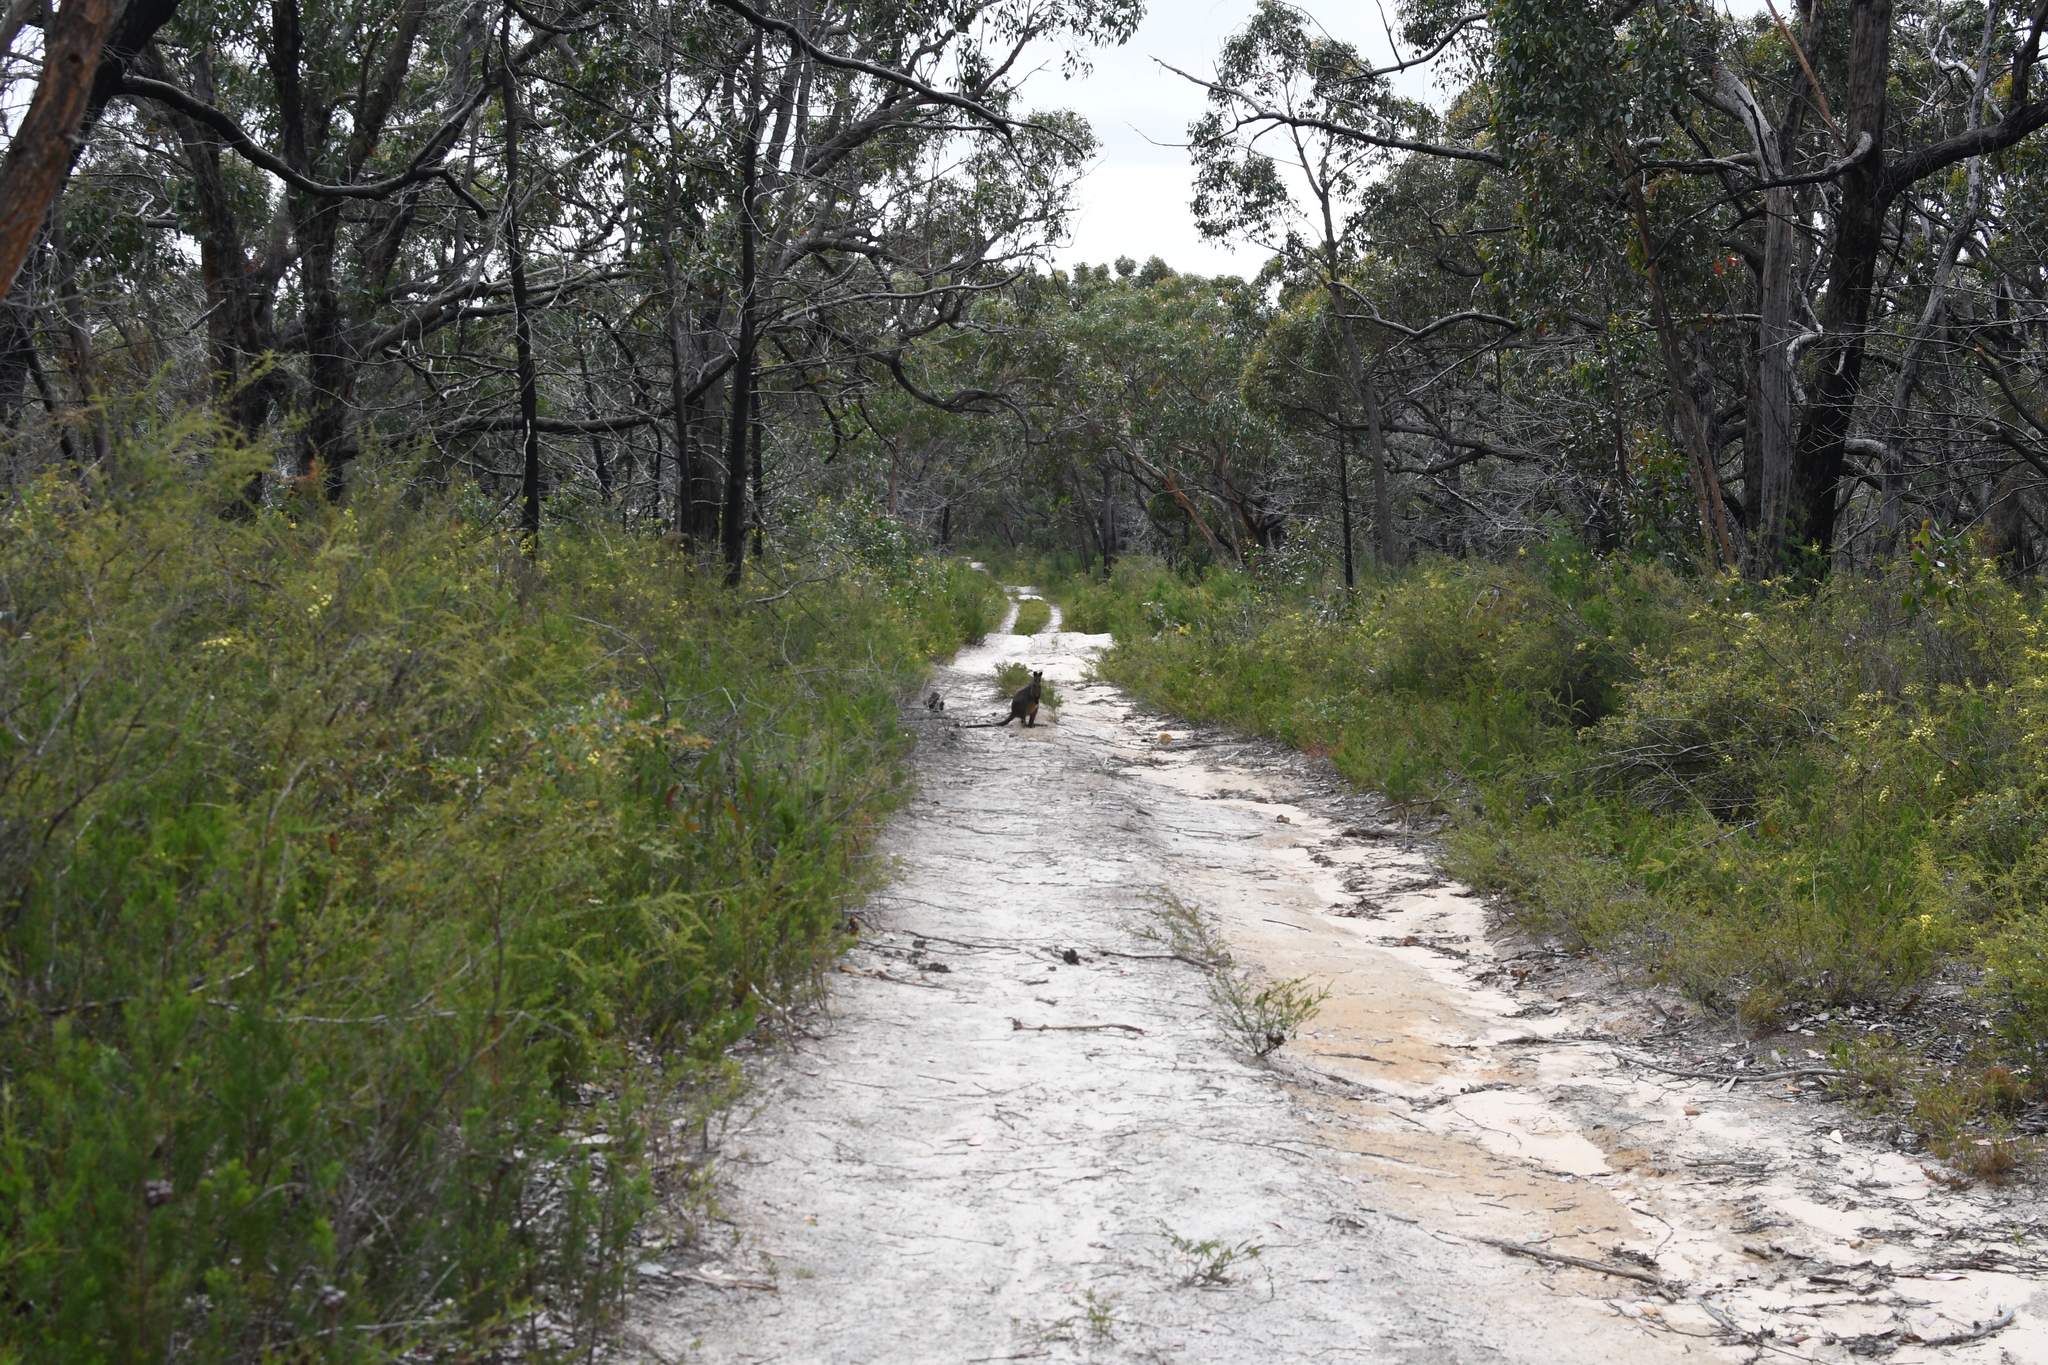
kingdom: Animalia
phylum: Chordata
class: Mammalia
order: Diprotodontia
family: Macropodidae
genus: Wallabia
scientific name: Wallabia bicolor
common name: Swamp wallaby
